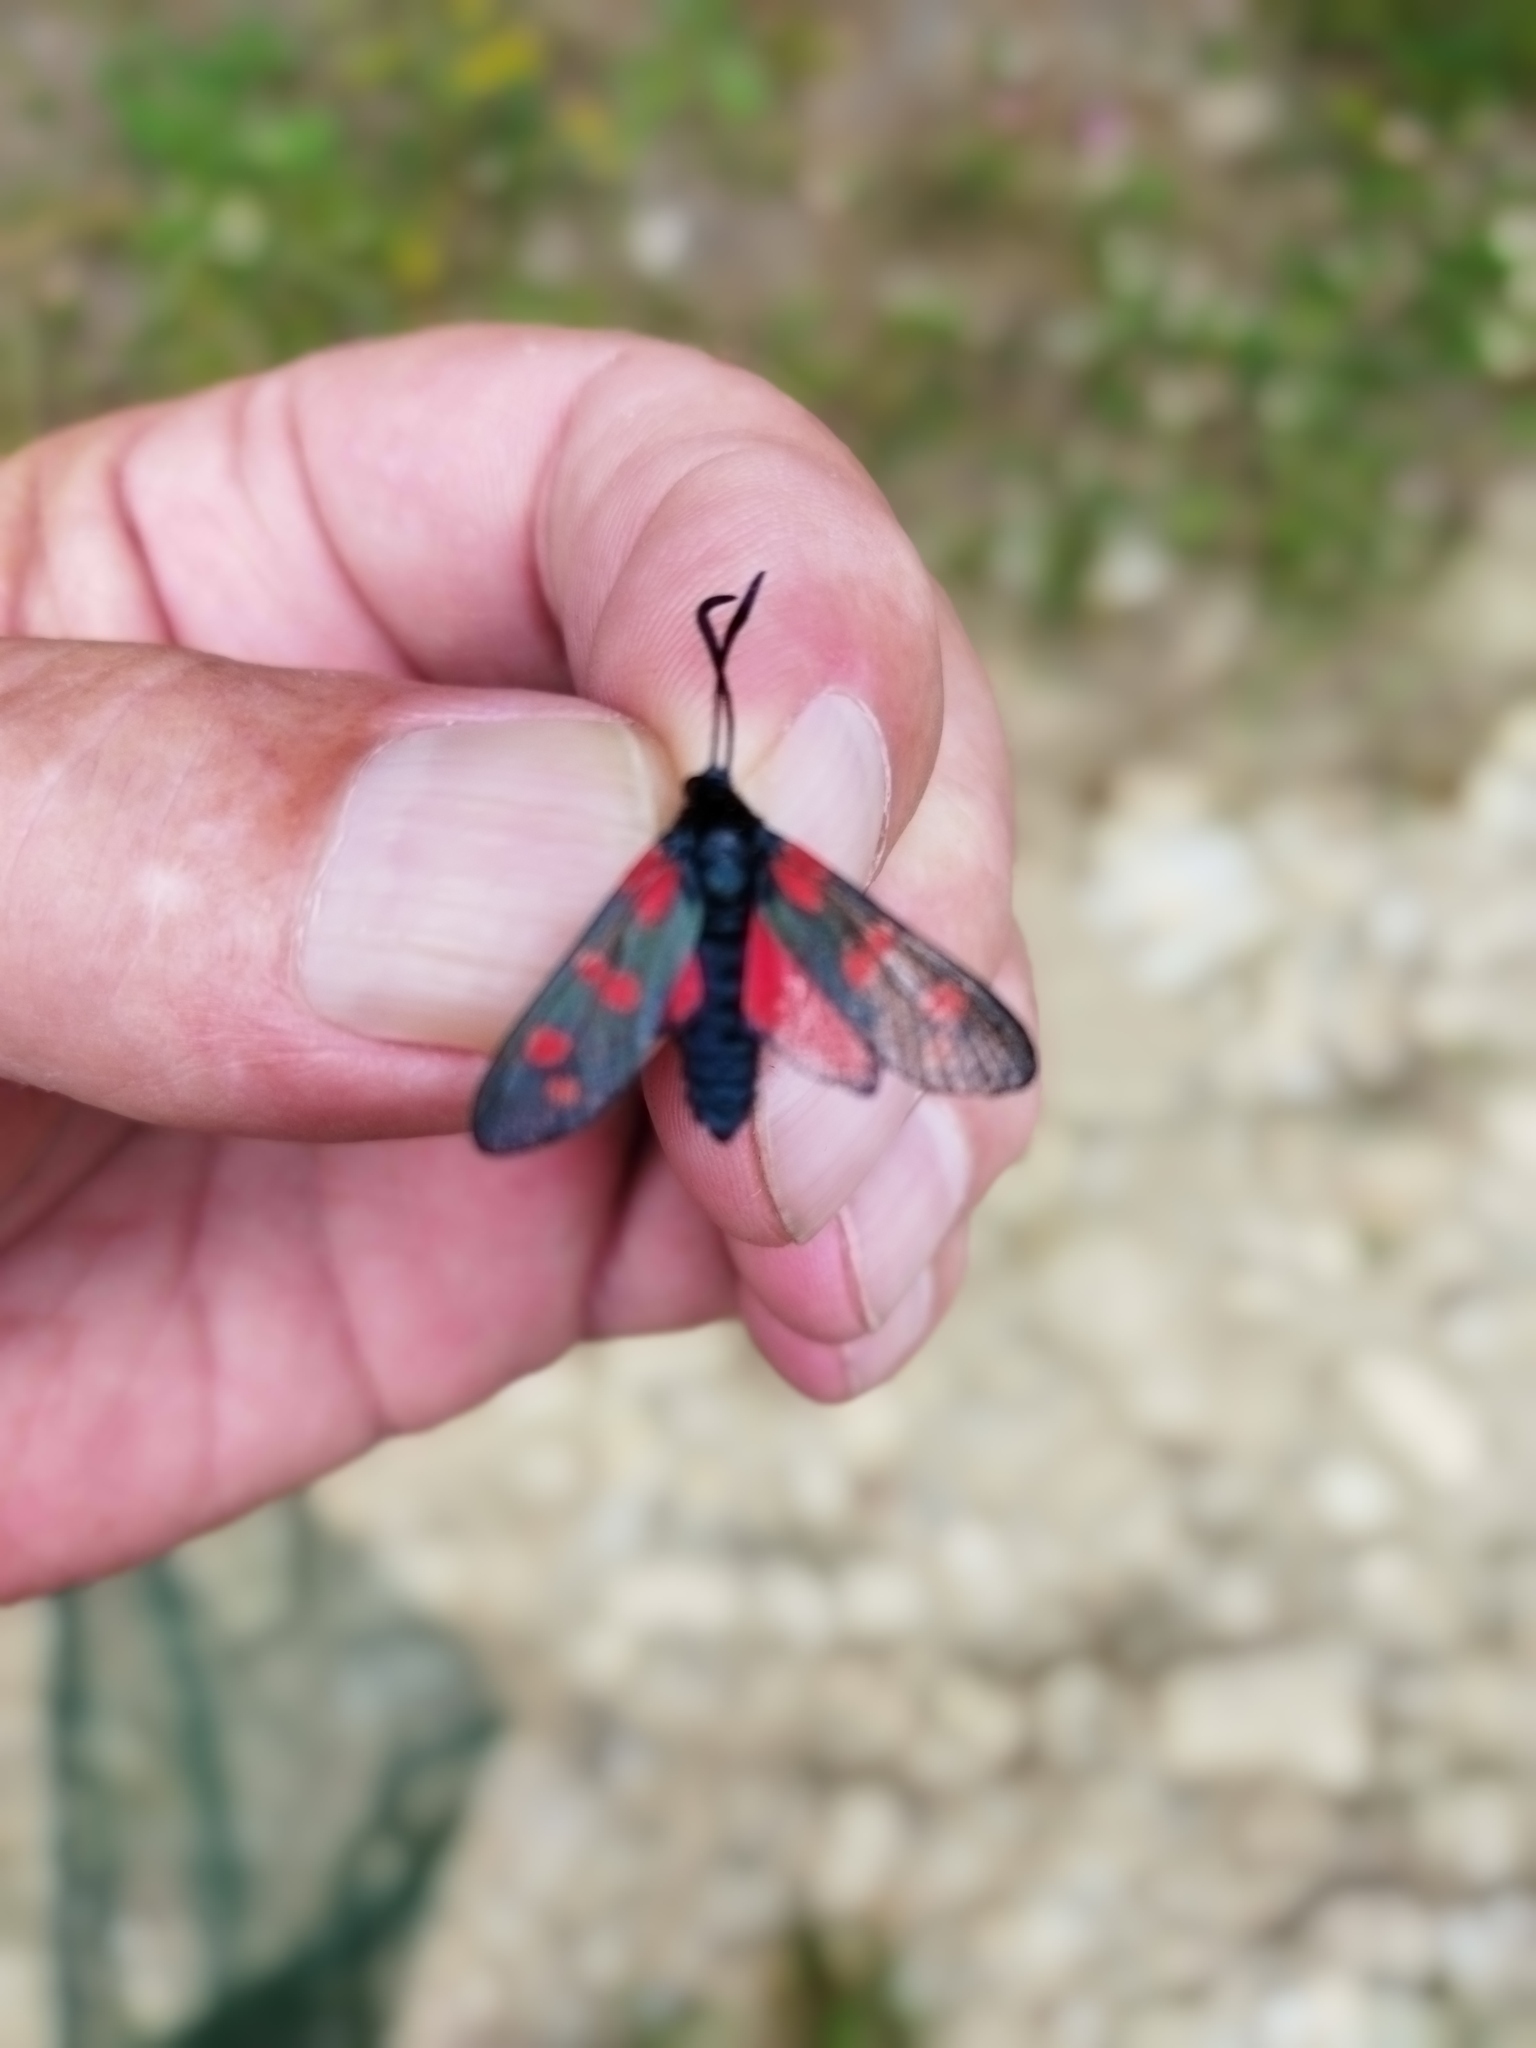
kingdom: Animalia
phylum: Arthropoda
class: Insecta
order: Lepidoptera
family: Zygaenidae
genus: Zygaena
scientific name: Zygaena filipendulae
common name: Six-spot burnet
